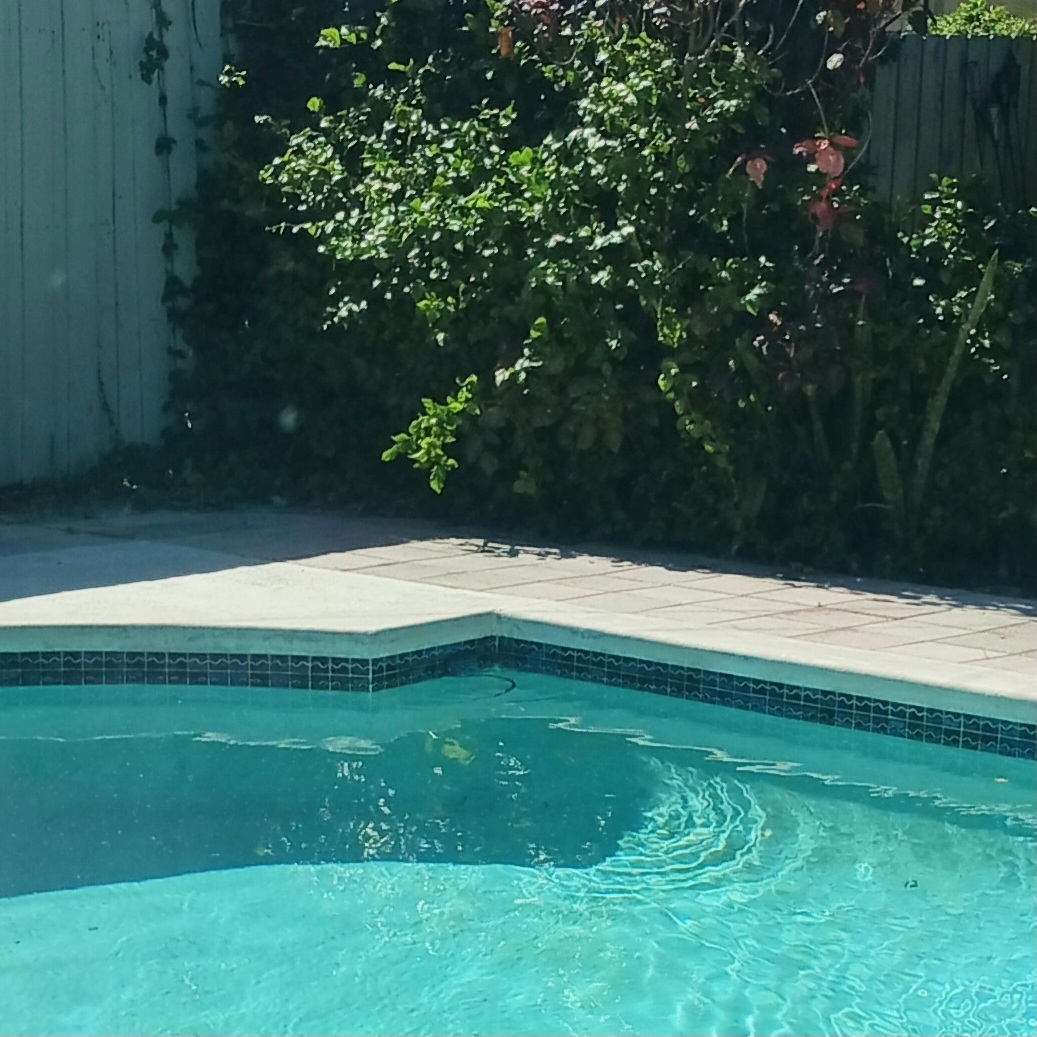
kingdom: Animalia
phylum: Chordata
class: Squamata
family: Colubridae
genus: Coluber
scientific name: Coluber constrictor
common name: Eastern racer
